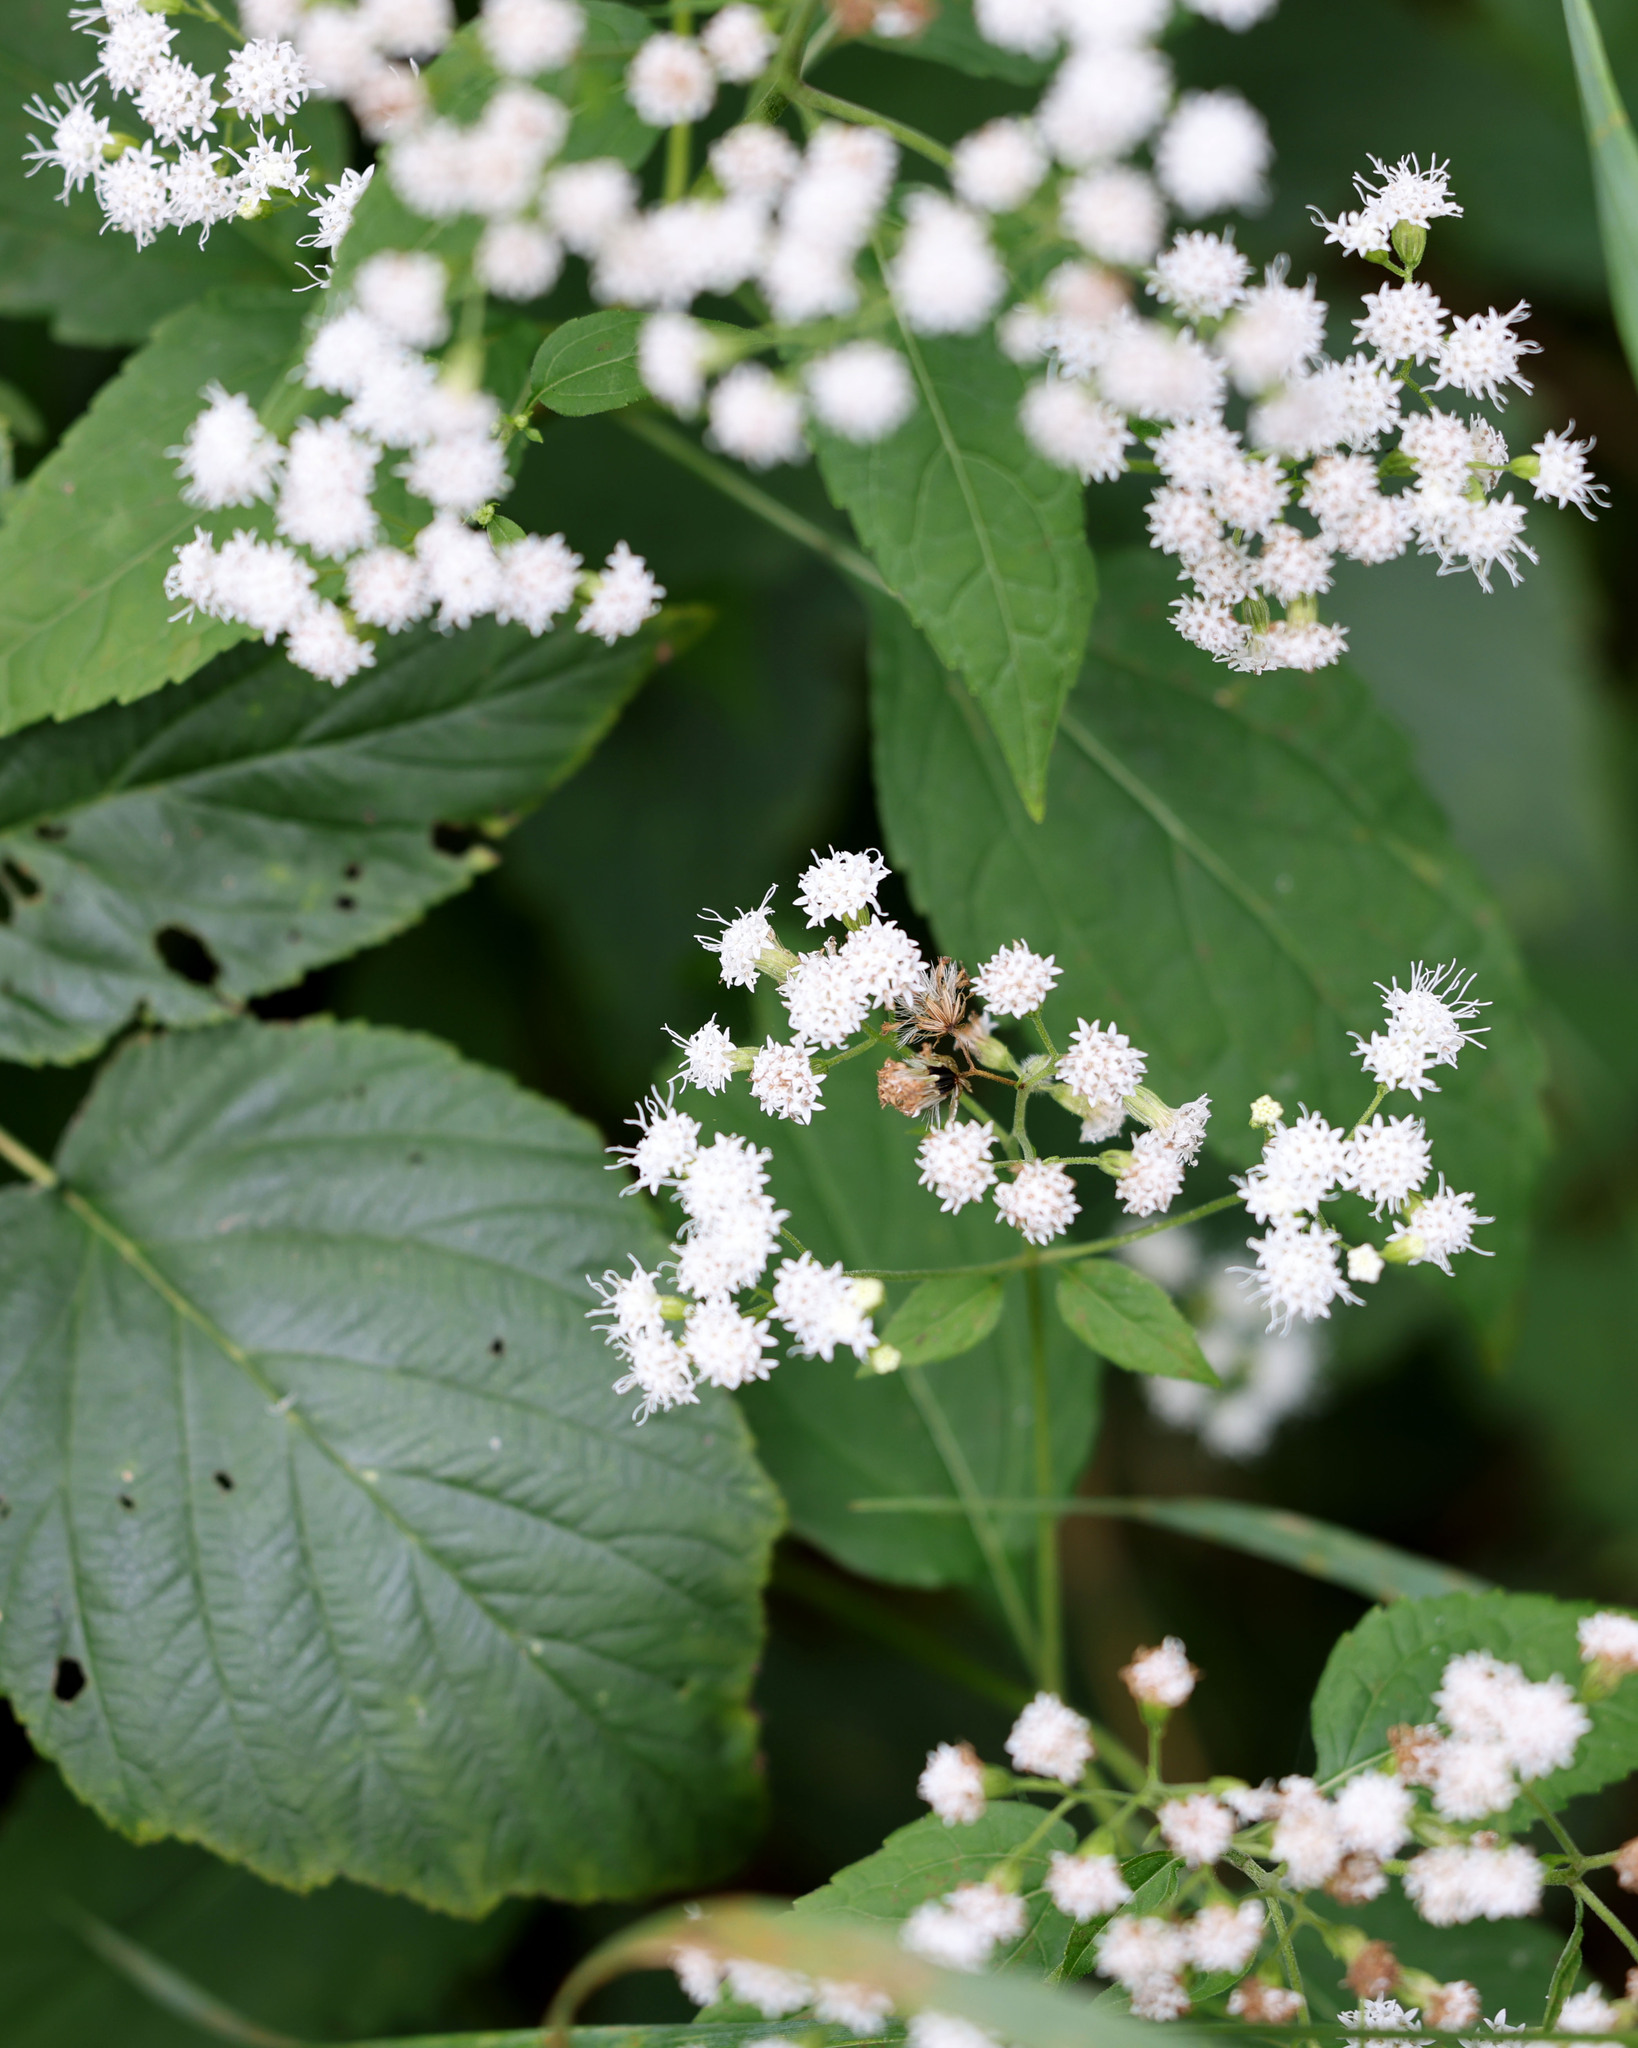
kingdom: Plantae
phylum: Tracheophyta
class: Magnoliopsida
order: Asterales
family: Asteraceae
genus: Ageratina
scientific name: Ageratina altissima
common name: White snakeroot
